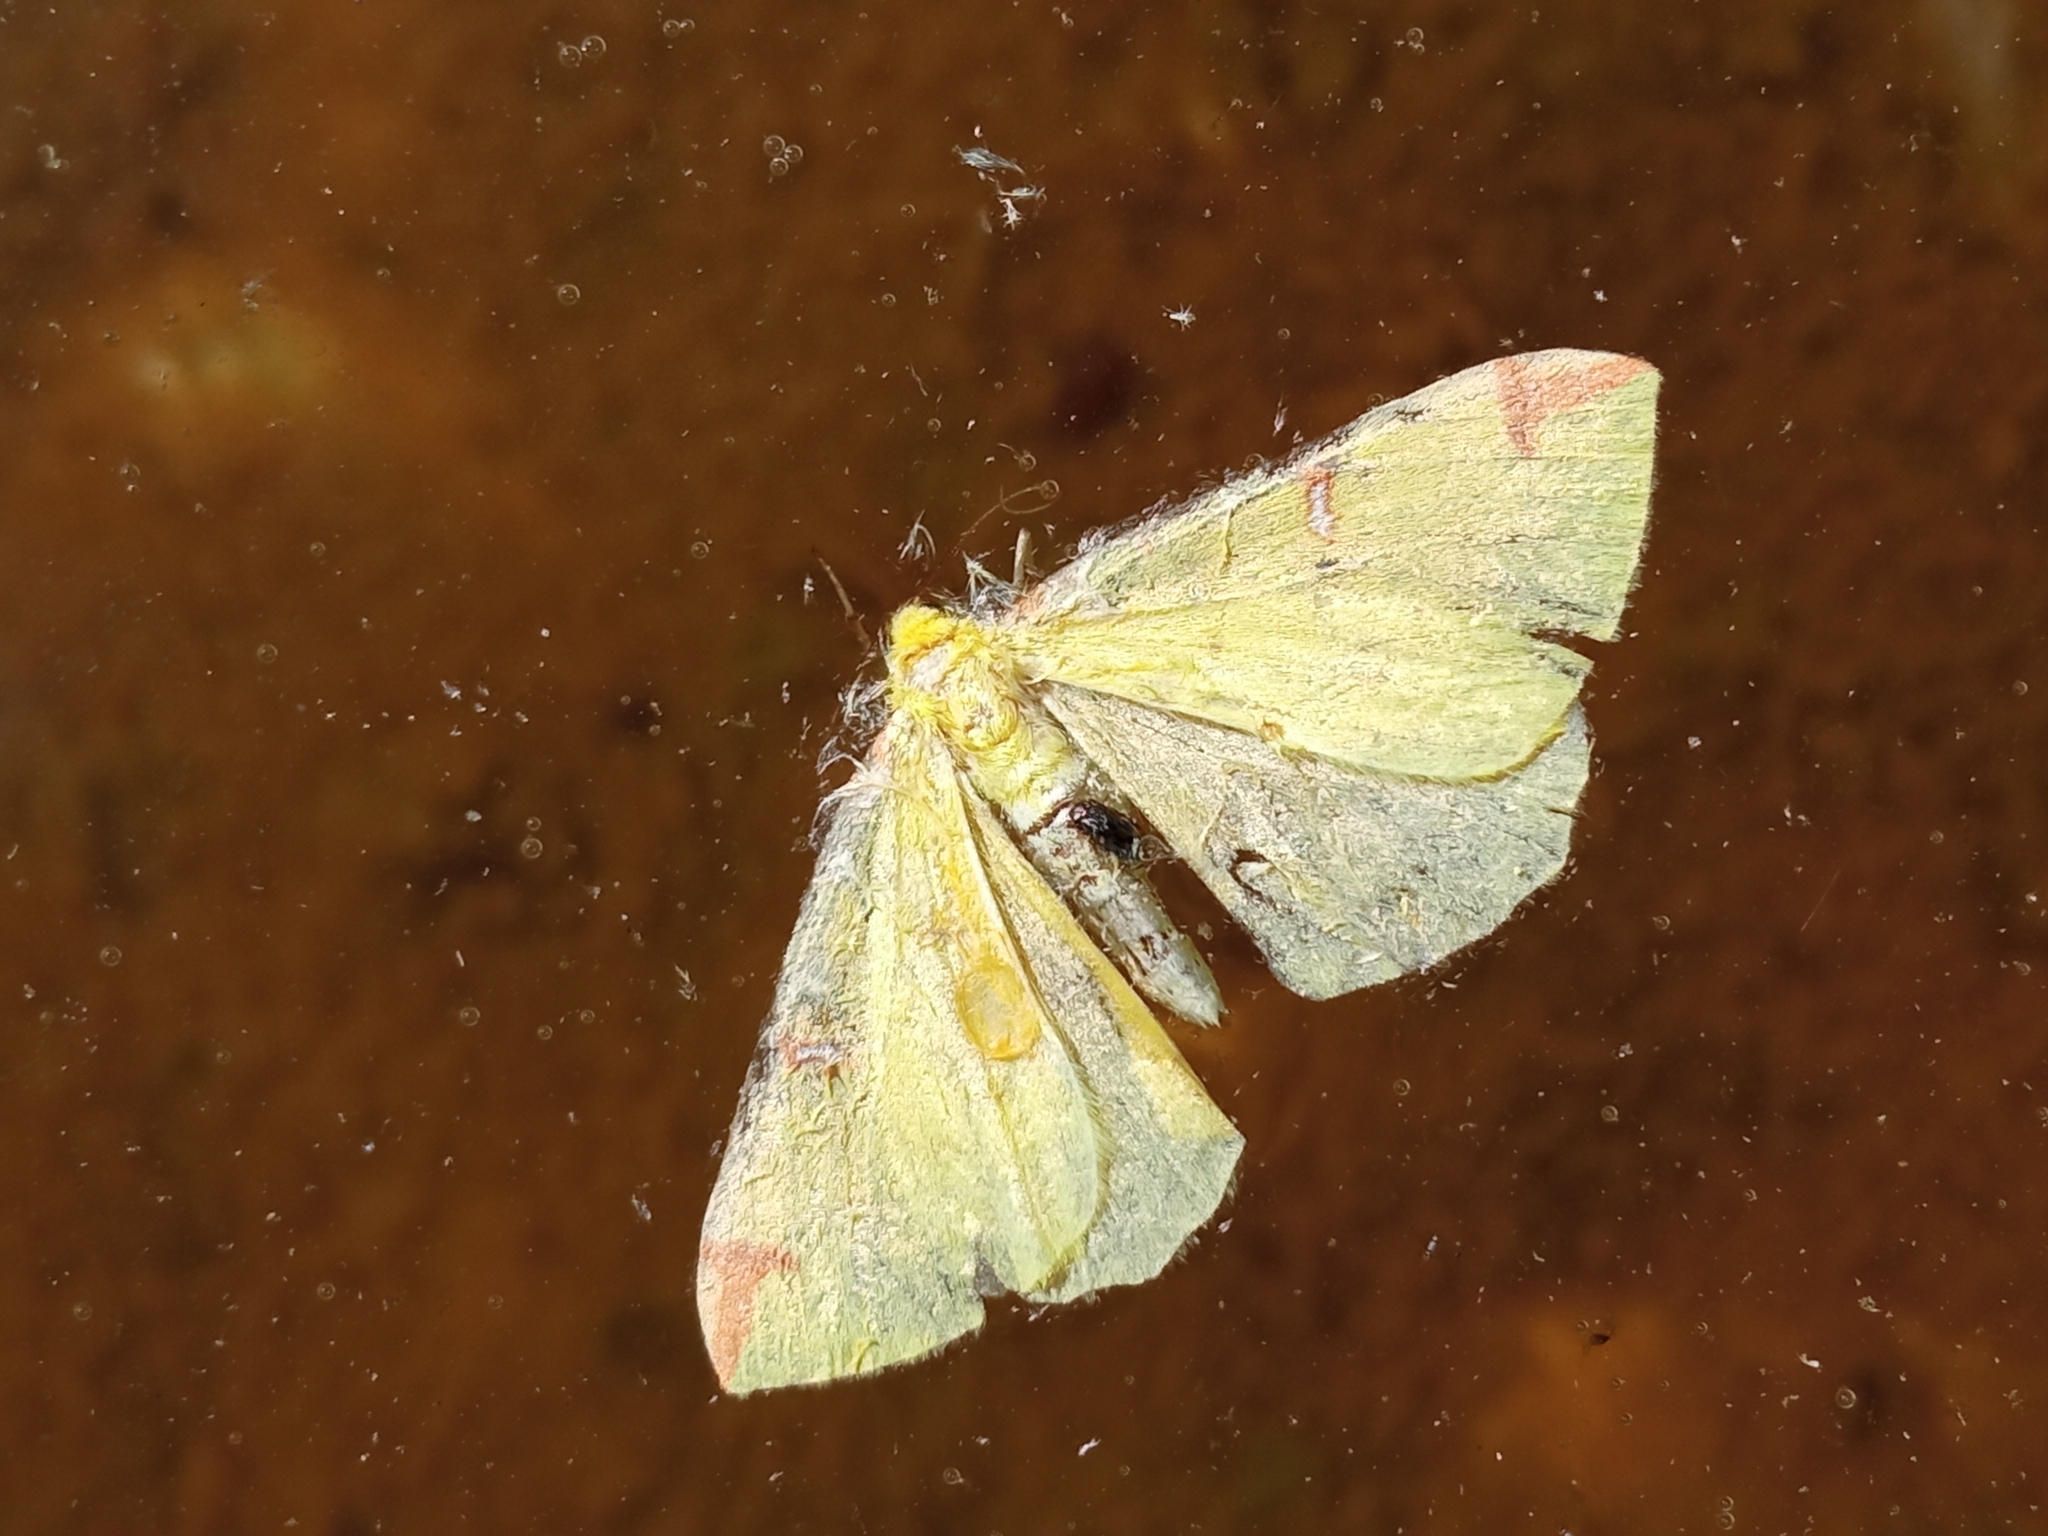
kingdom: Animalia
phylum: Arthropoda
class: Insecta
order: Lepidoptera
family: Geometridae
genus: Opisthograptis
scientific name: Opisthograptis luteolata
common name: Brimstone moth
